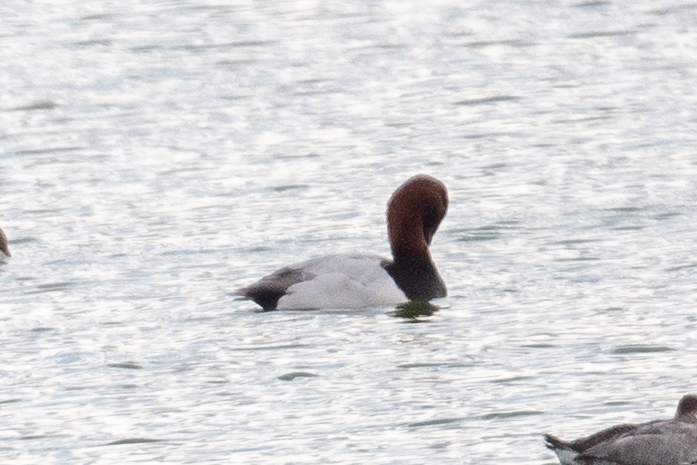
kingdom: Animalia
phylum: Chordata
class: Aves
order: Anseriformes
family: Anatidae
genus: Aythya
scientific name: Aythya valisineria
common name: Canvasback
